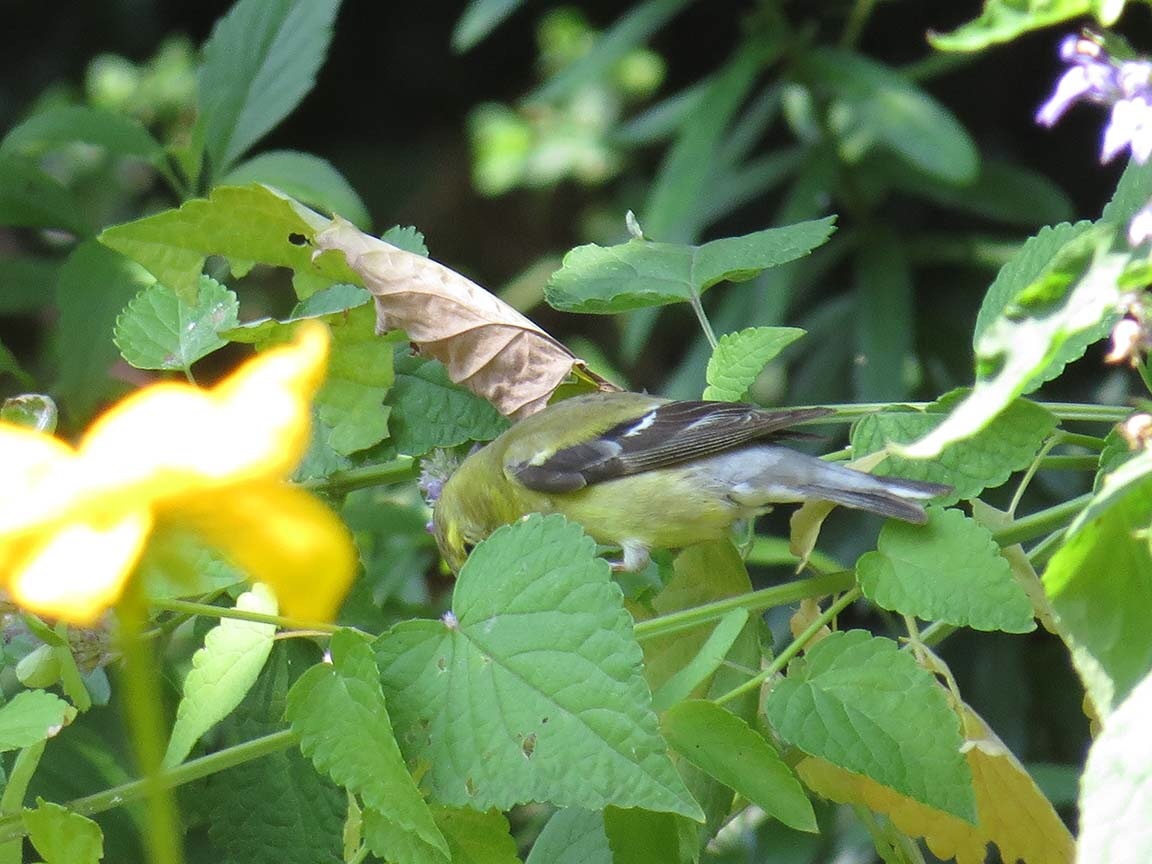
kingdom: Animalia
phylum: Chordata
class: Aves
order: Passeriformes
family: Fringillidae
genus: Spinus
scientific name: Spinus tristis
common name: American goldfinch
